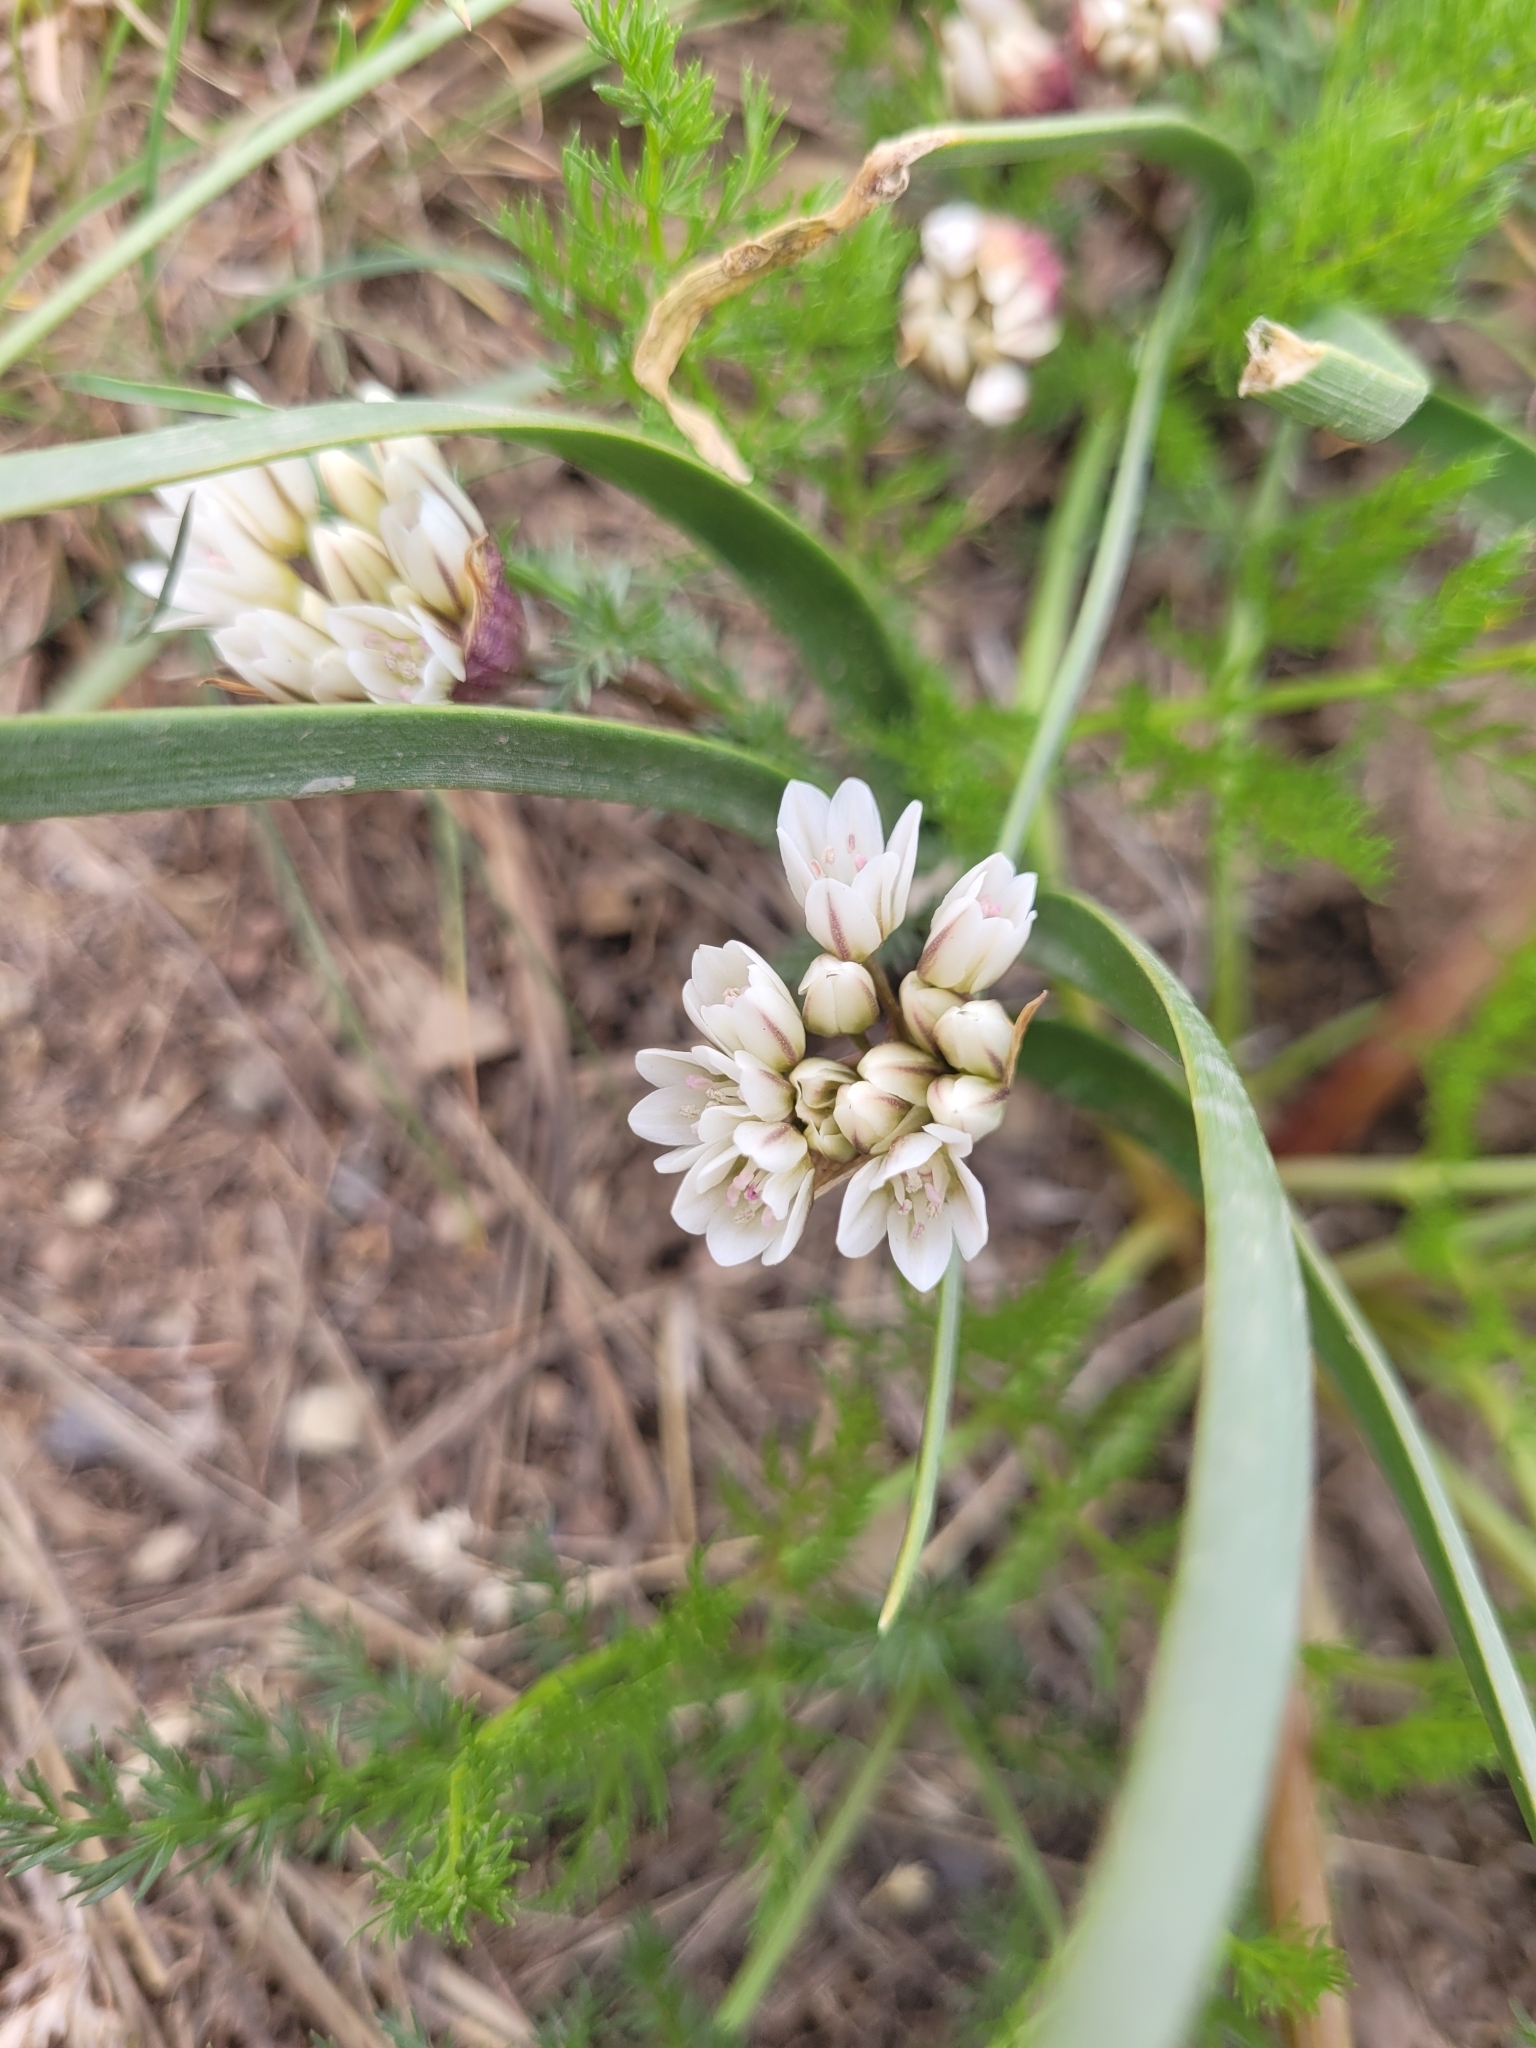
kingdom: Plantae
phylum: Tracheophyta
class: Liliopsida
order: Asparagales
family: Amaryllidaceae
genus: Allium
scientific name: Allium brandegeei
